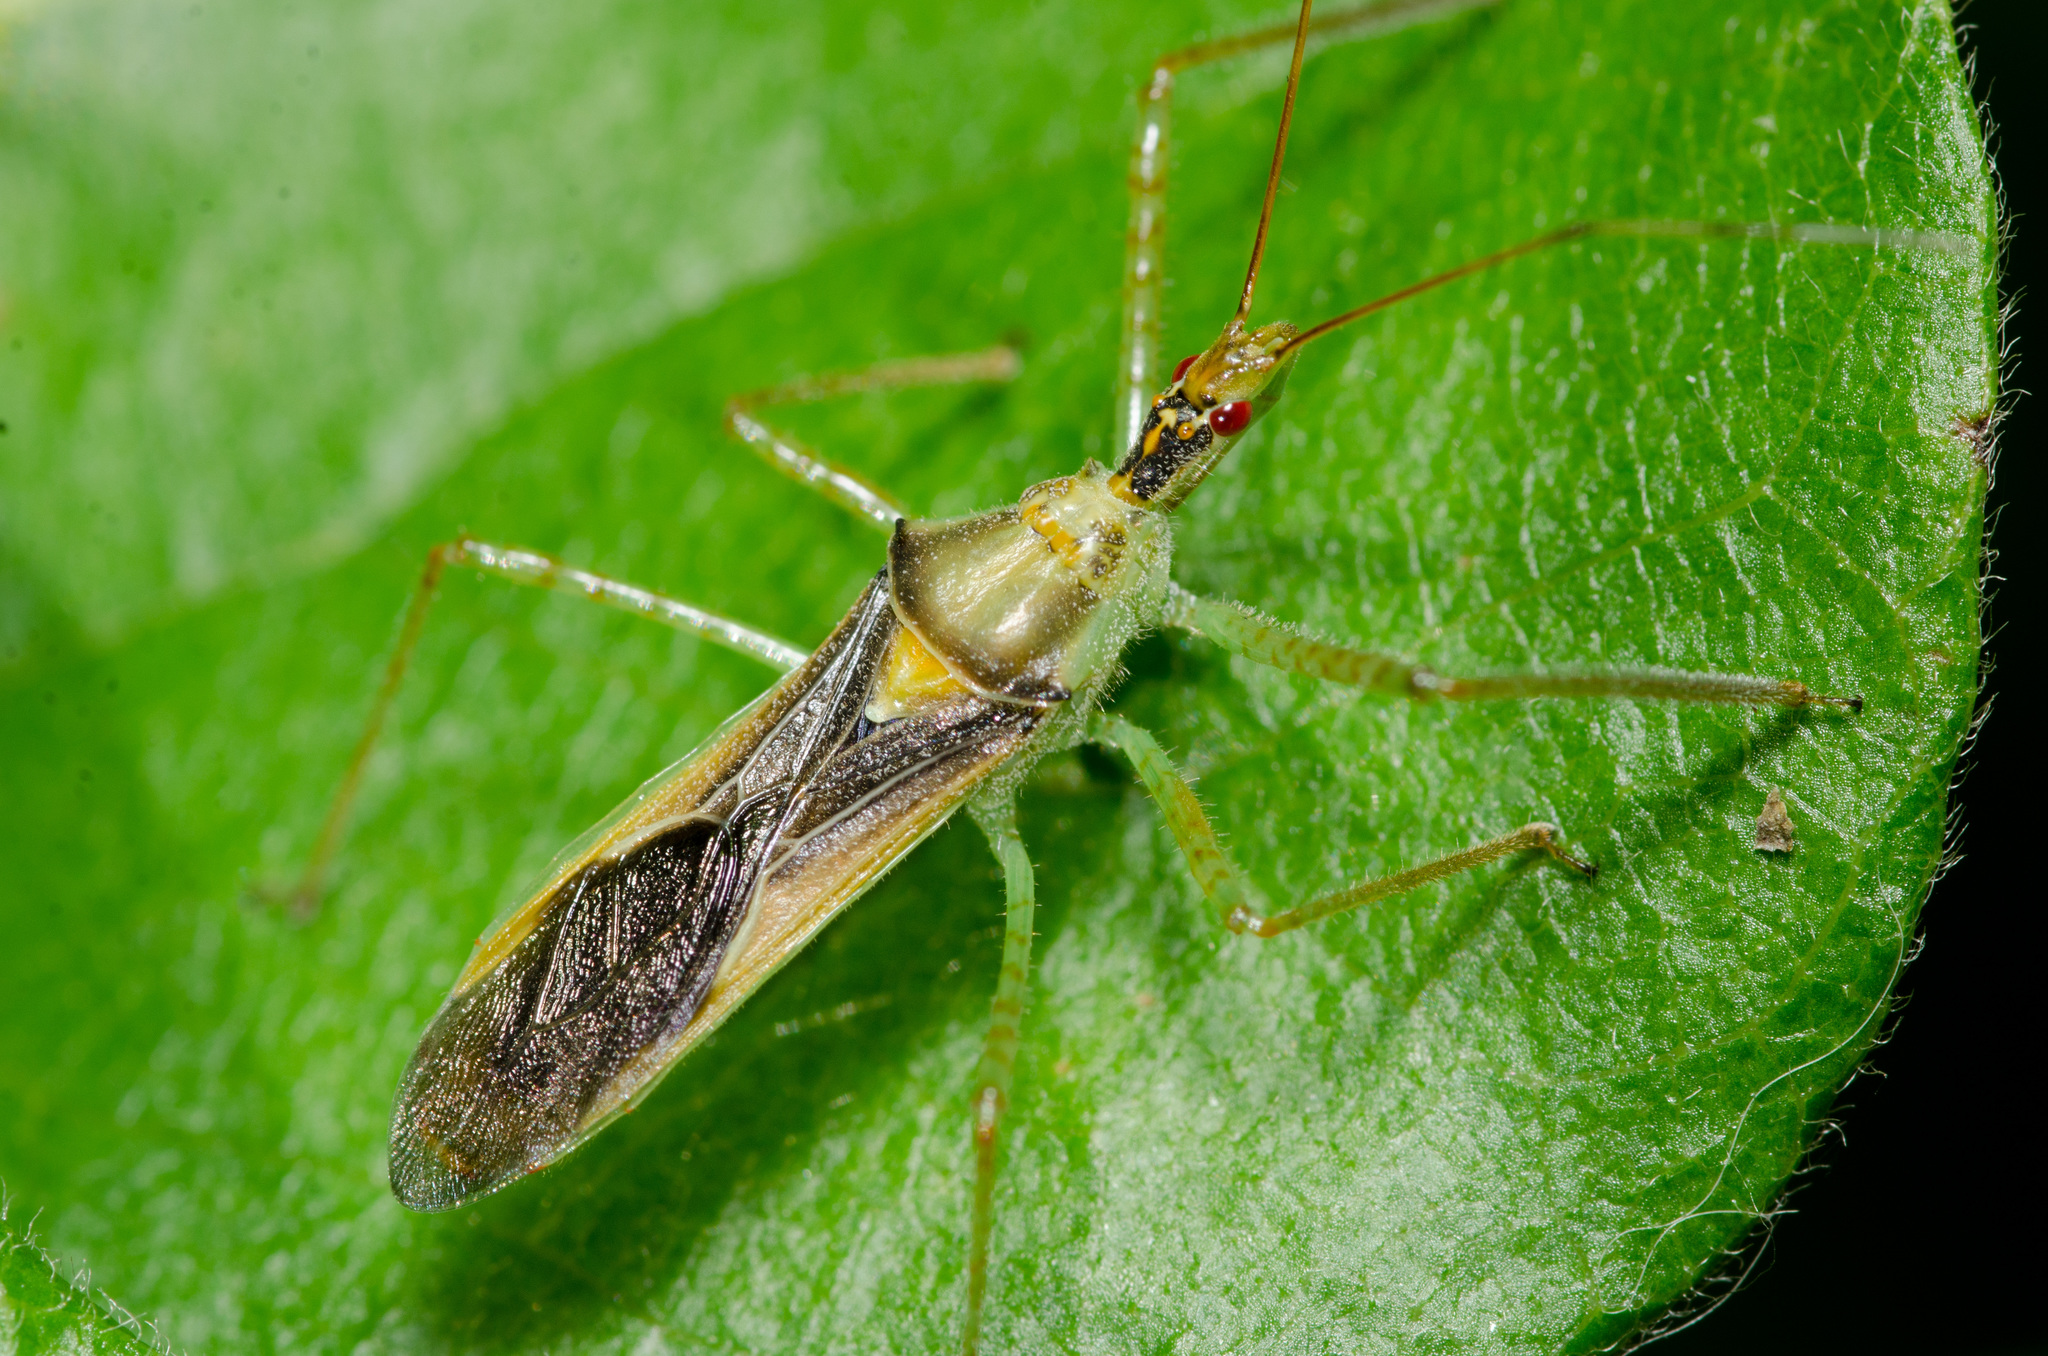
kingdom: Animalia
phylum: Arthropoda
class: Insecta
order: Hemiptera
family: Reduviidae
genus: Zelus
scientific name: Zelus renardii
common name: Assassin bug
